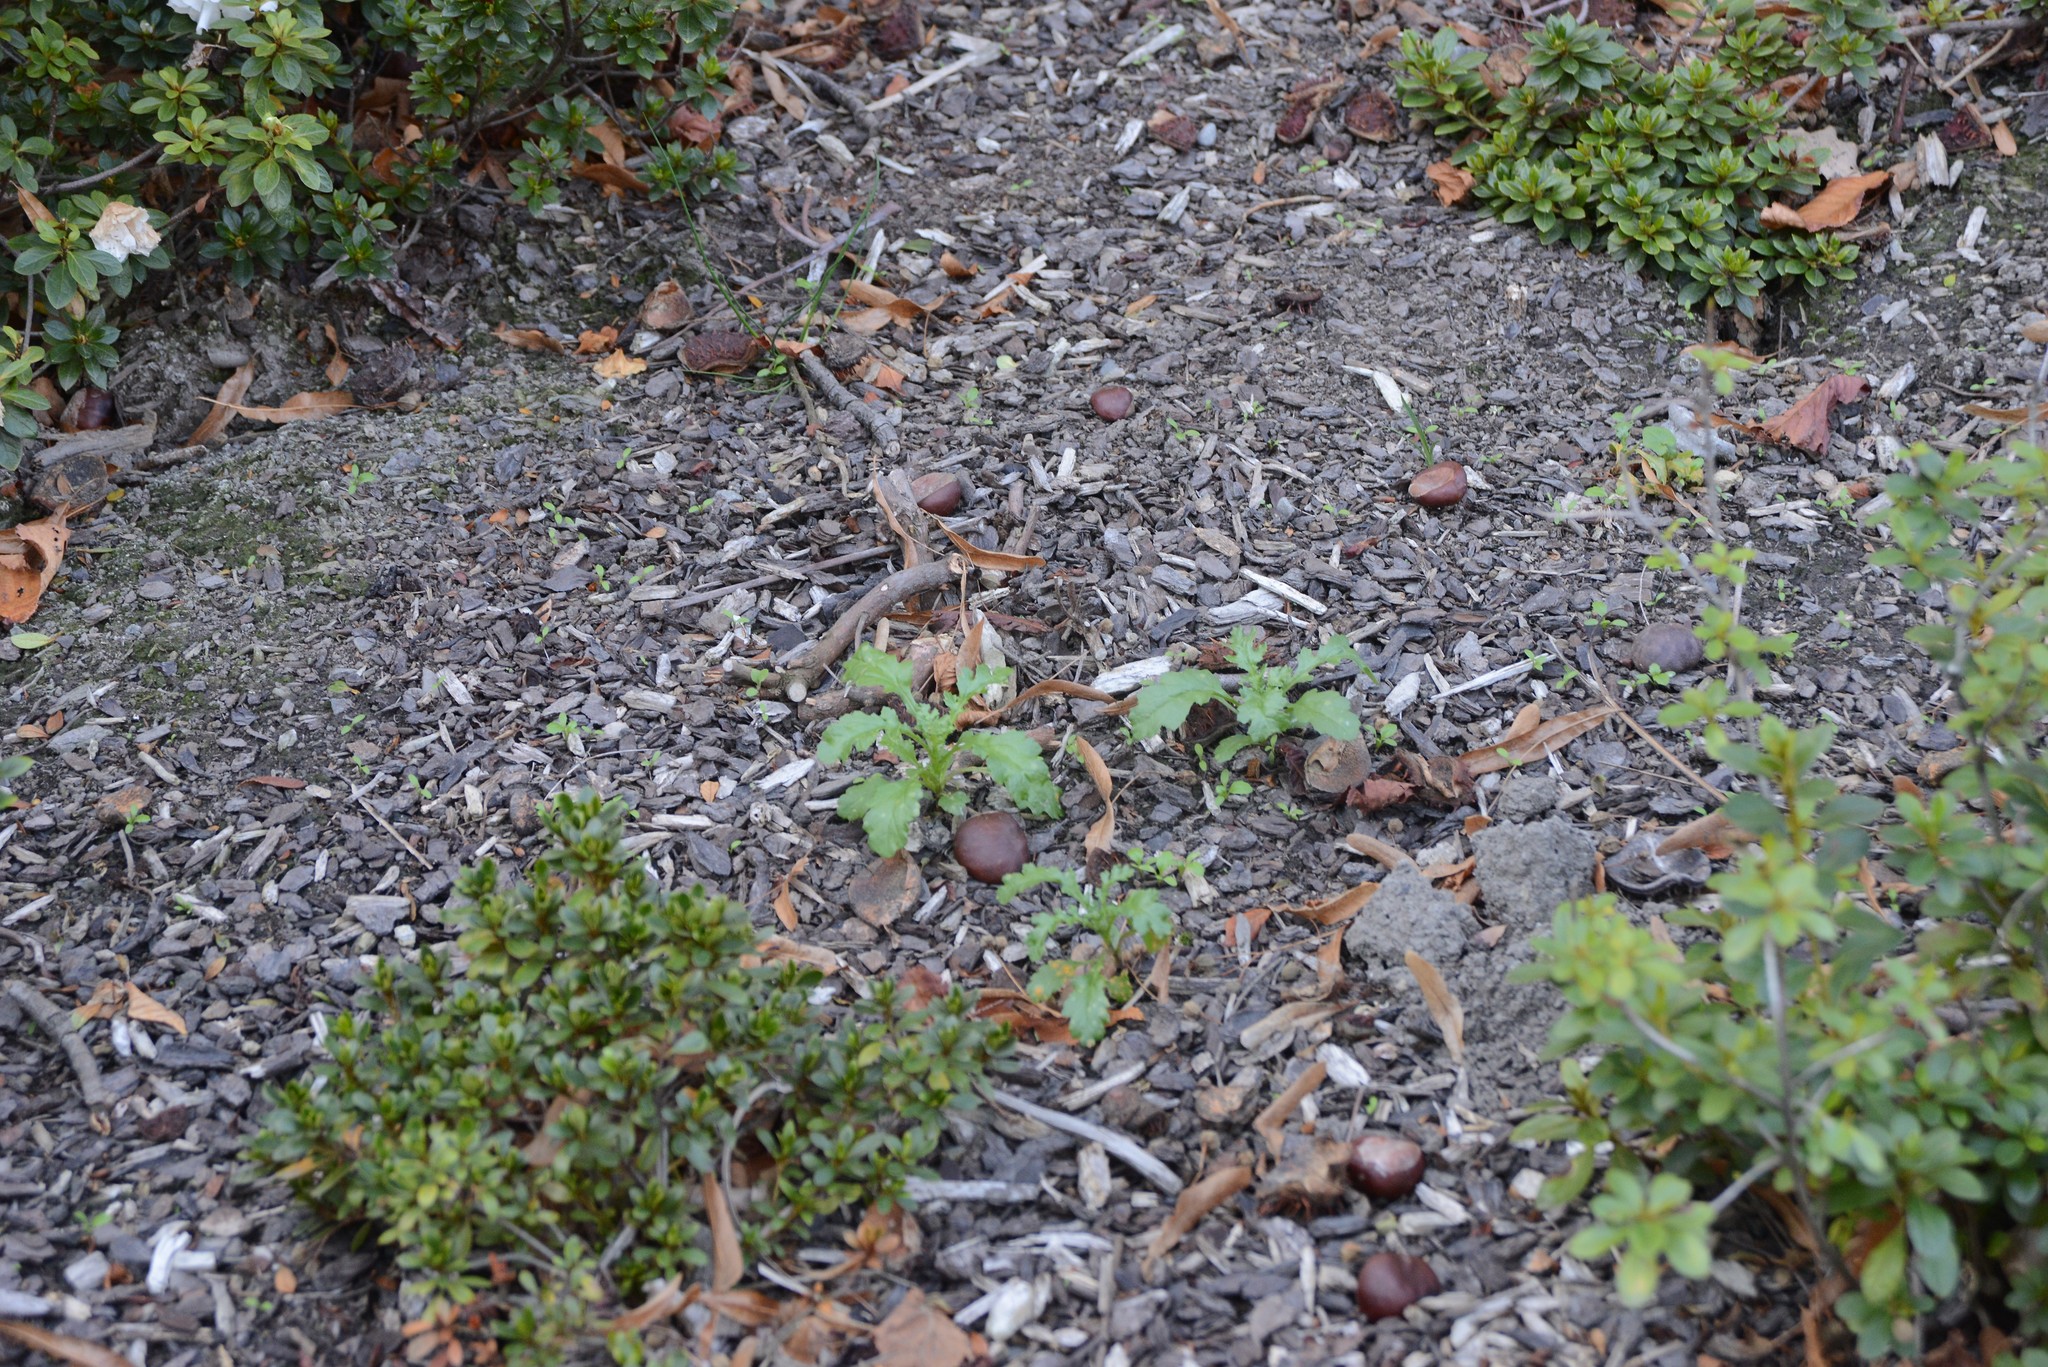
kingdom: Plantae
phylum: Tracheophyta
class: Magnoliopsida
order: Asterales
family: Asteraceae
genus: Senecio
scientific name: Senecio vulgaris
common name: Old-man-in-the-spring
